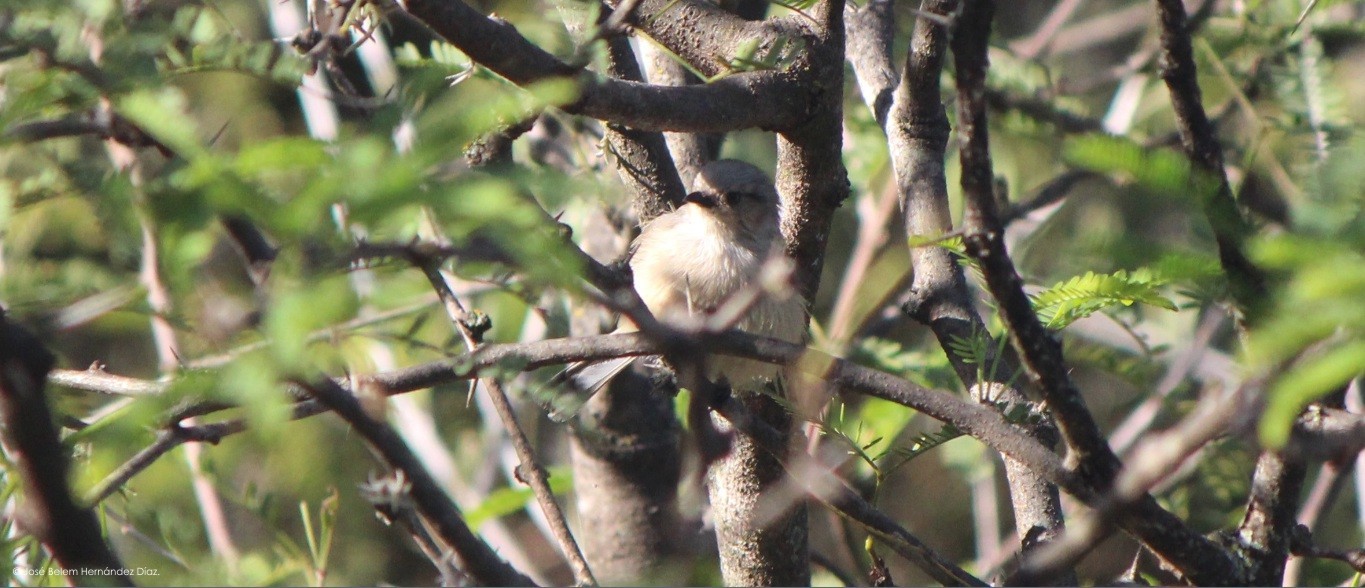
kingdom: Animalia
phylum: Chordata
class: Aves
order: Passeriformes
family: Aegithalidae
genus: Psaltriparus
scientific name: Psaltriparus minimus
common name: American bushtit
